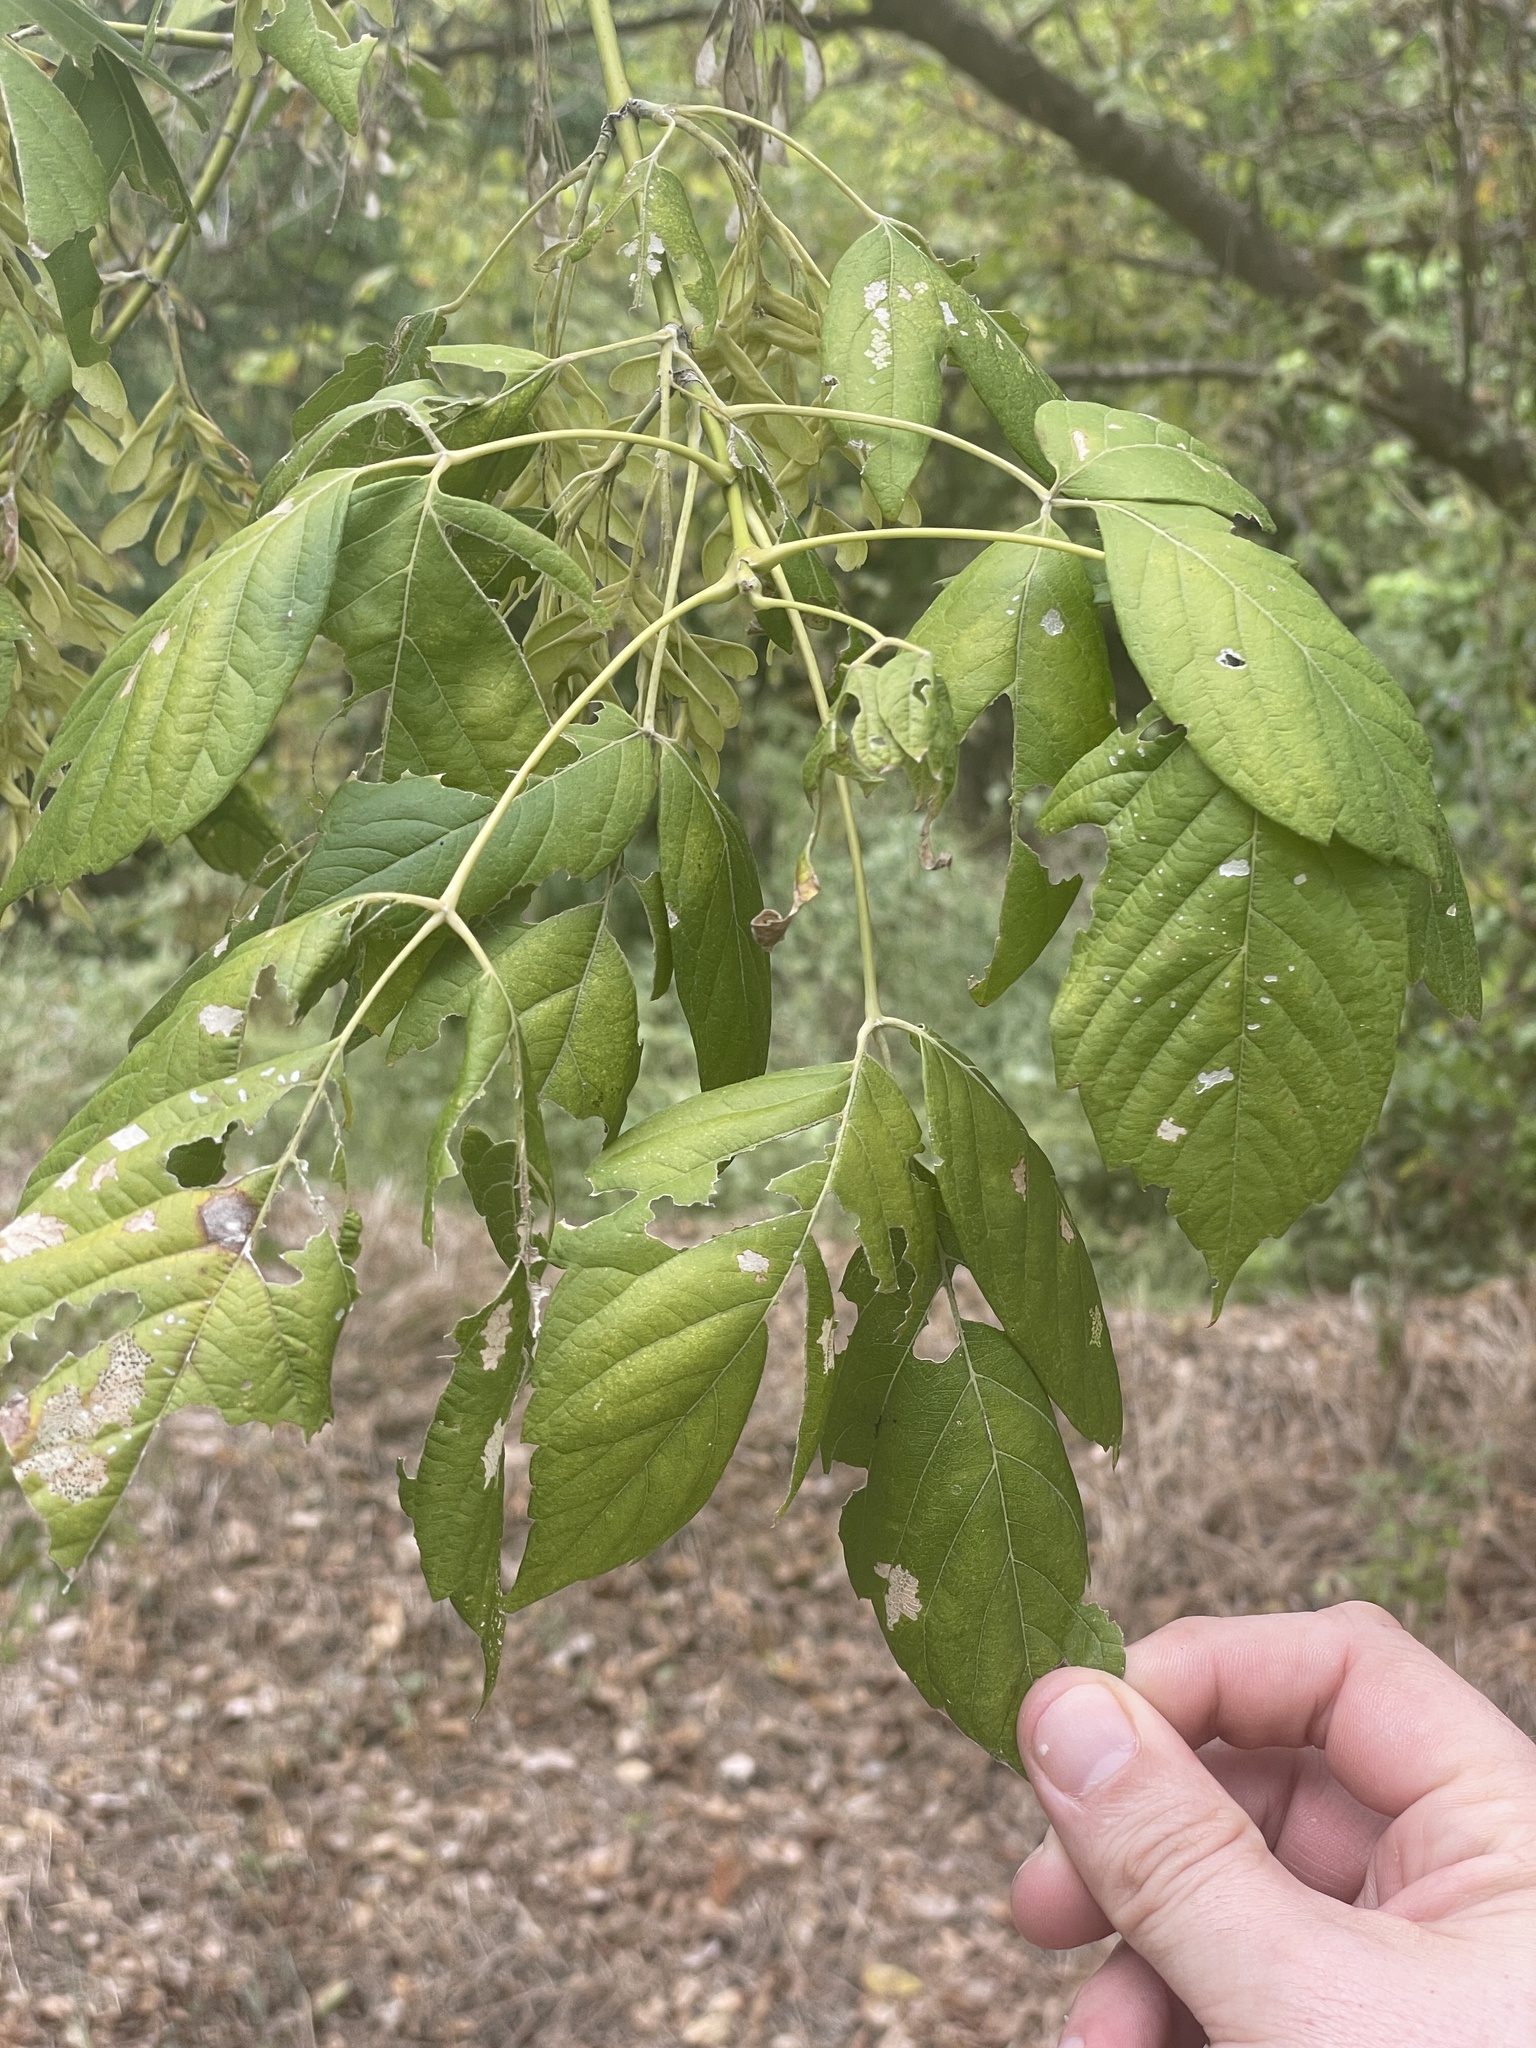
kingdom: Plantae
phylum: Tracheophyta
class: Magnoliopsida
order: Sapindales
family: Sapindaceae
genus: Acer
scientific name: Acer negundo
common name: Ashleaf maple
